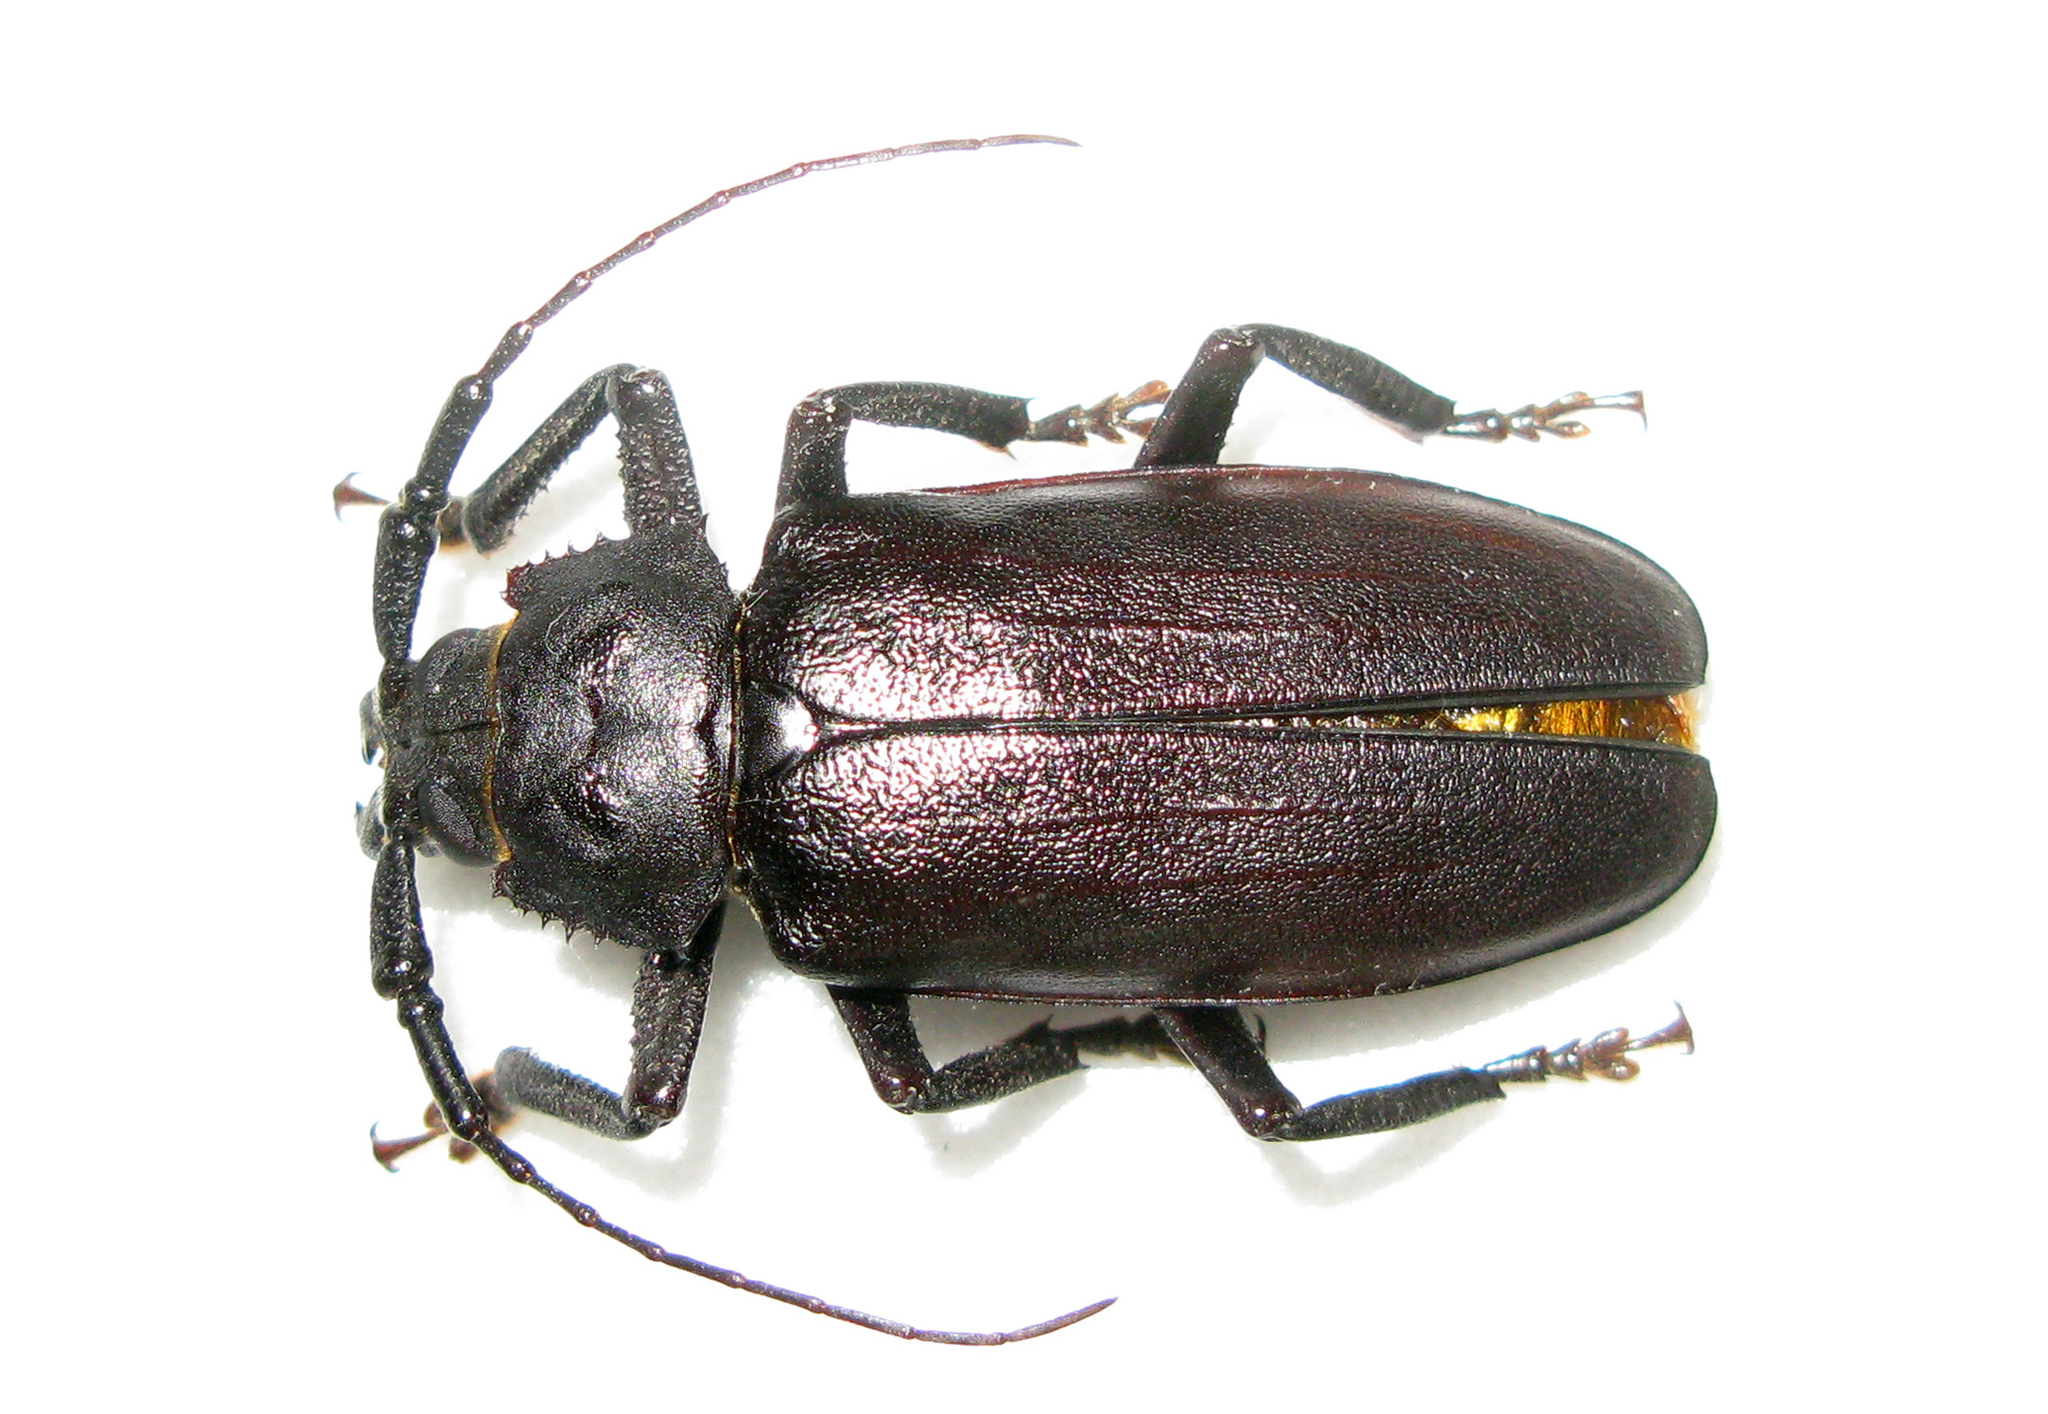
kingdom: Animalia
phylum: Arthropoda
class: Insecta
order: Coleoptera
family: Cerambycidae
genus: Rhaesus
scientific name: Rhaesus serraticollis
